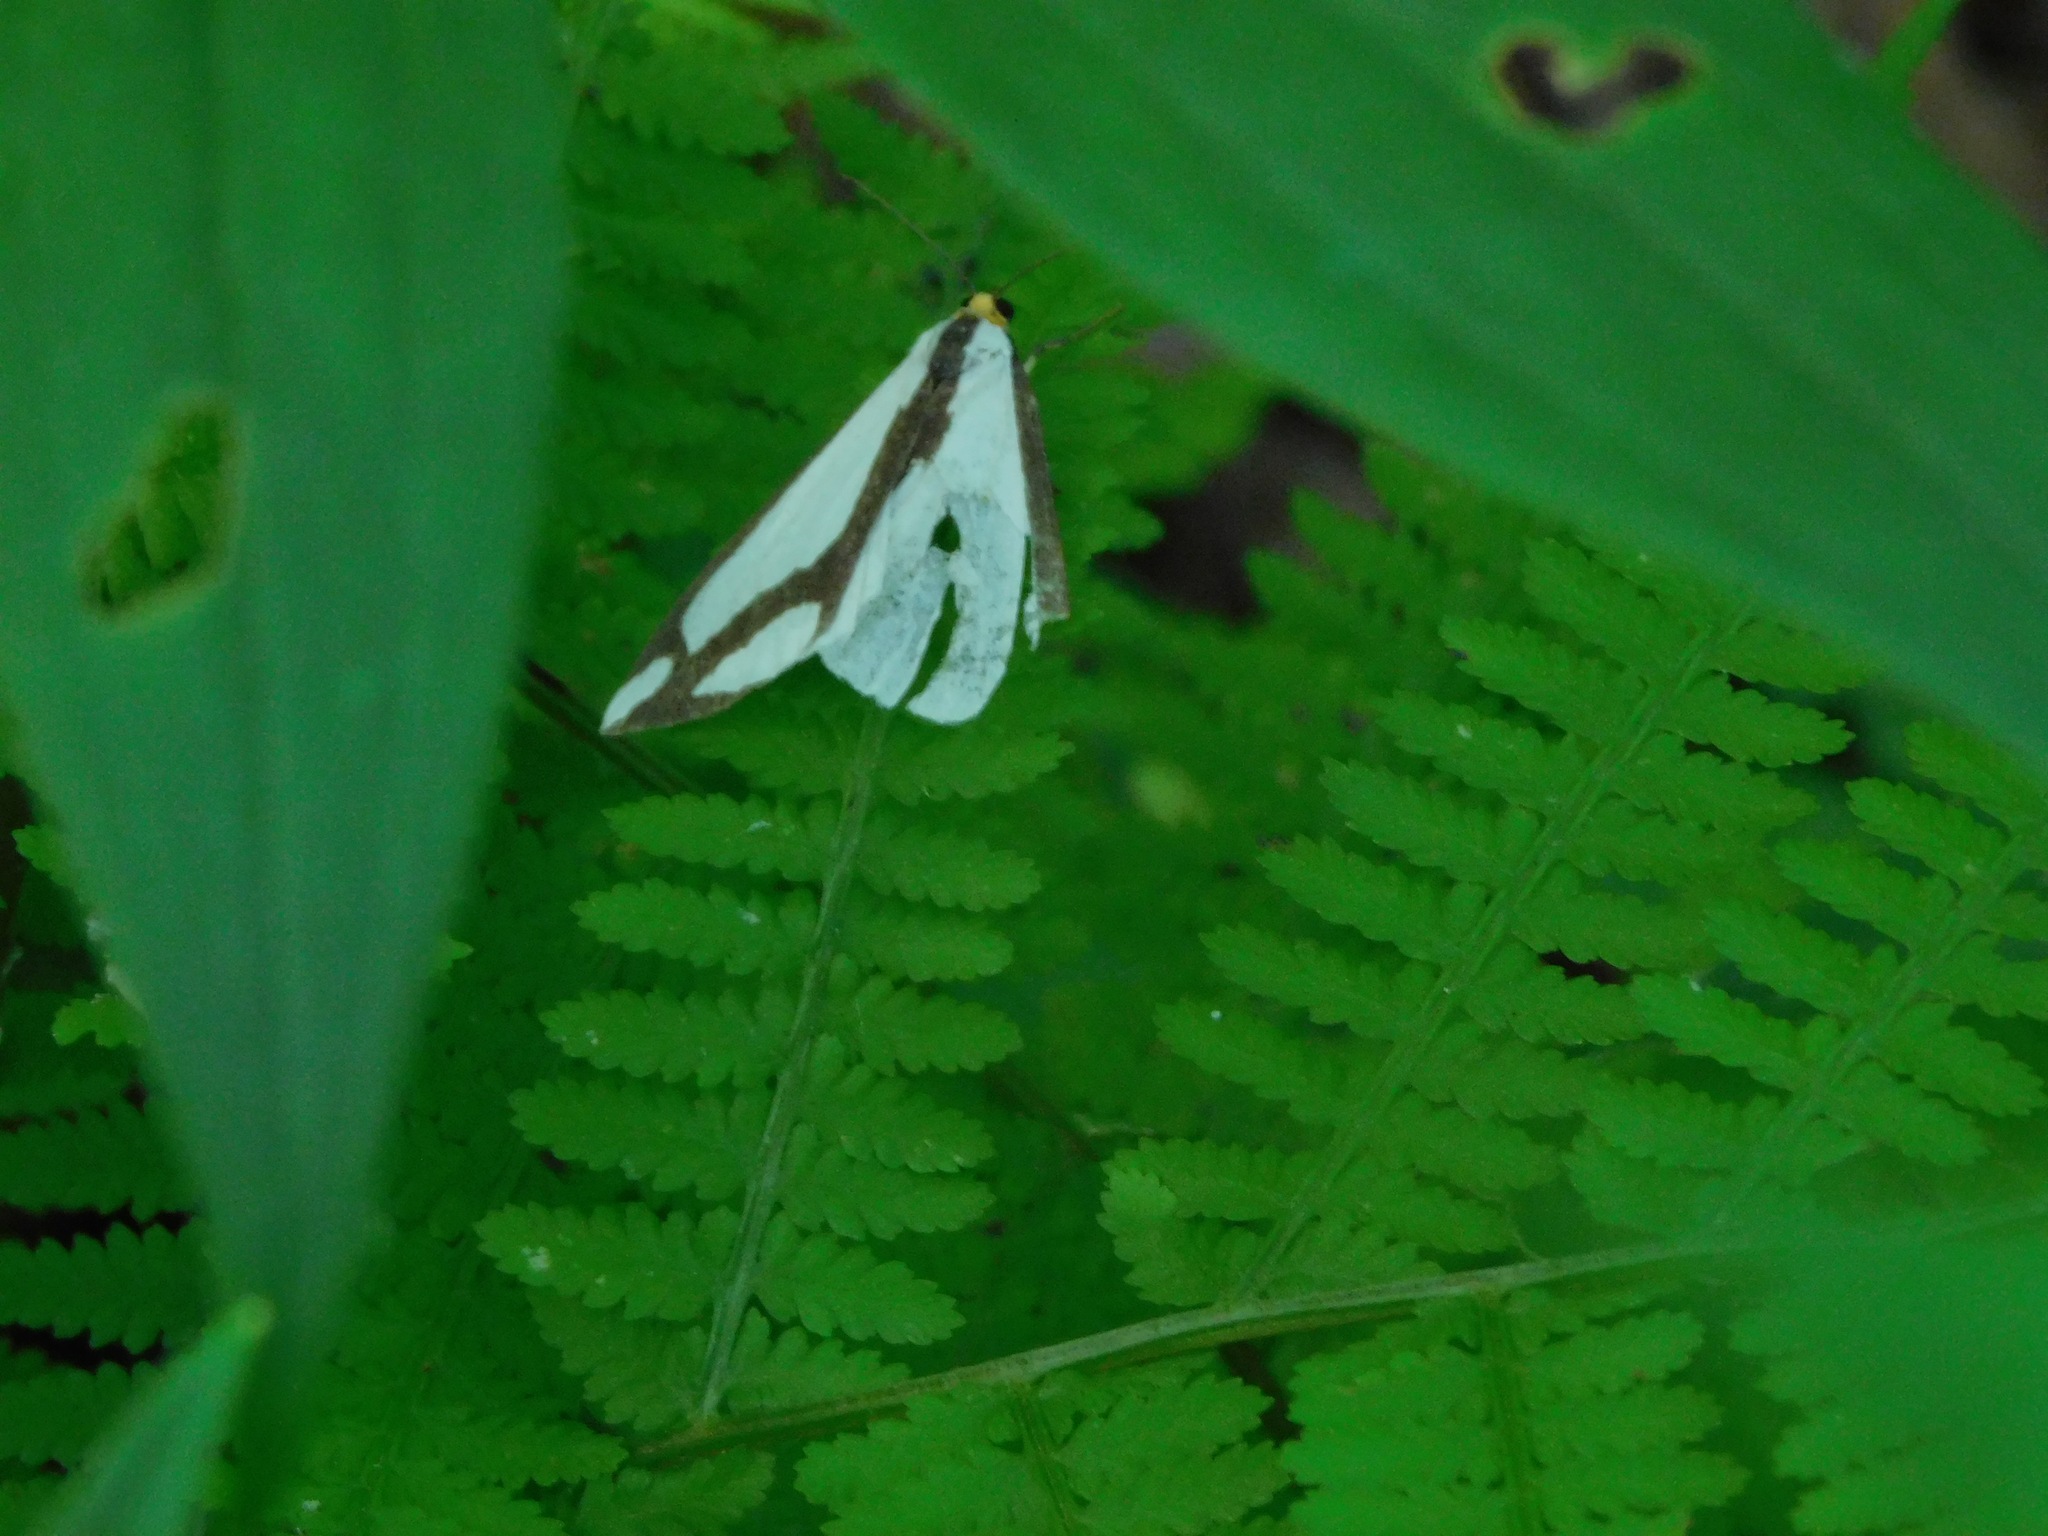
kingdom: Animalia
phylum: Arthropoda
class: Insecta
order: Lepidoptera
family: Erebidae
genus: Haploa
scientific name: Haploa lecontei
